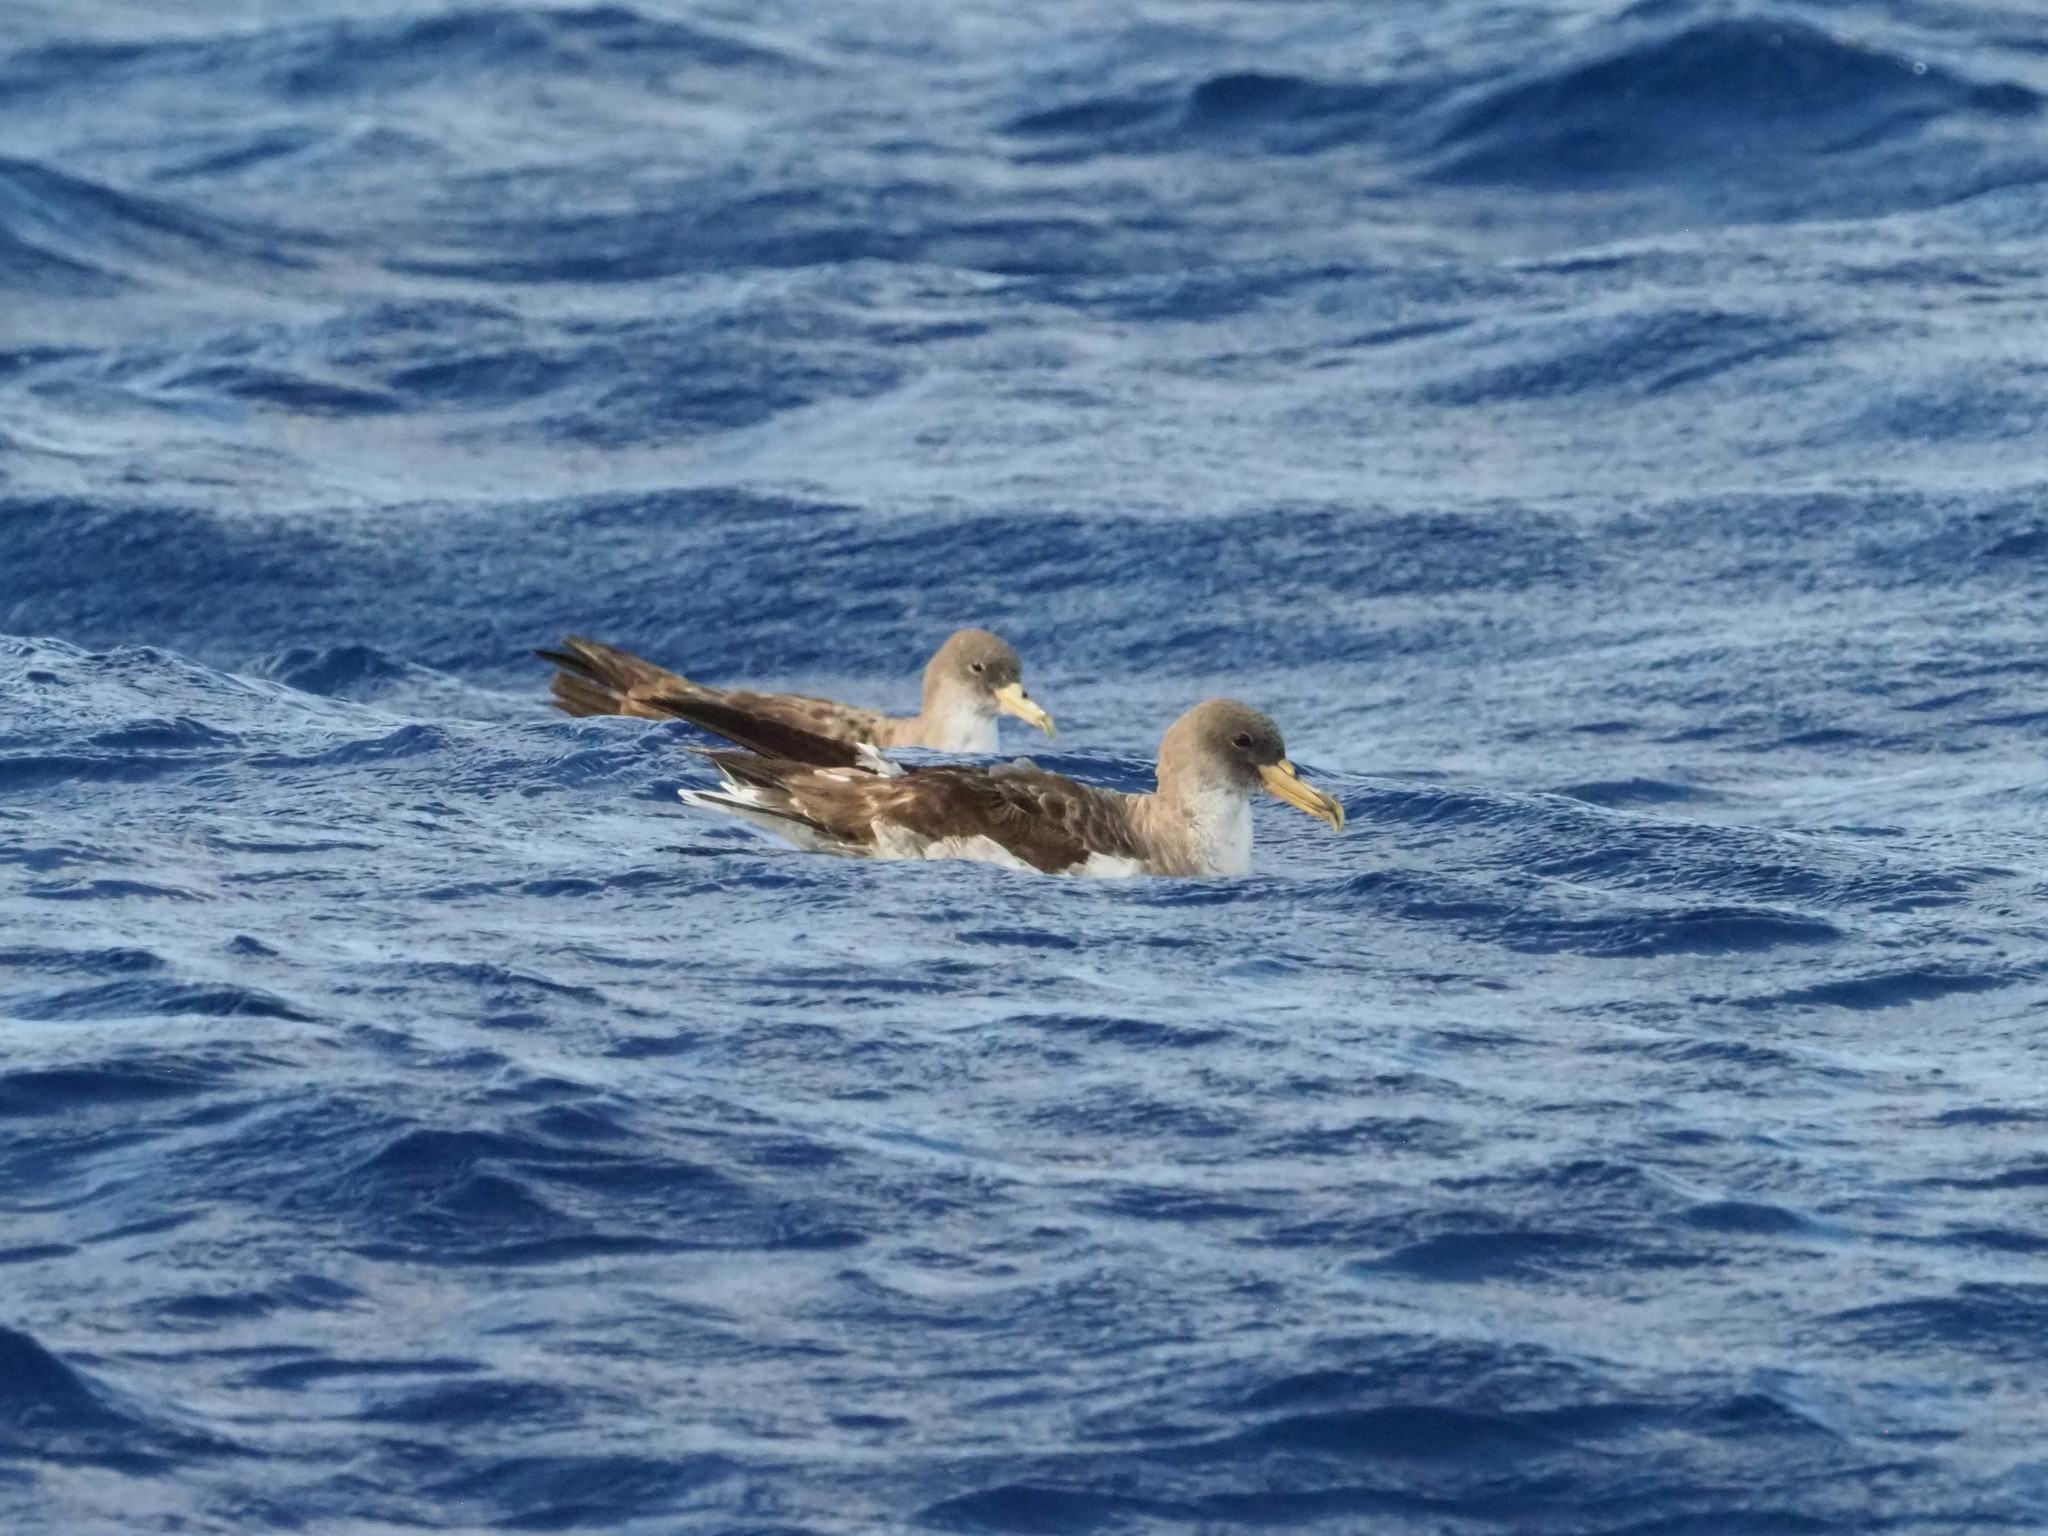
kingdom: Animalia
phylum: Chordata
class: Aves
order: Procellariiformes
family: Procellariidae
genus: Calonectris
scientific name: Calonectris diomedea
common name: Cory's shearwater
